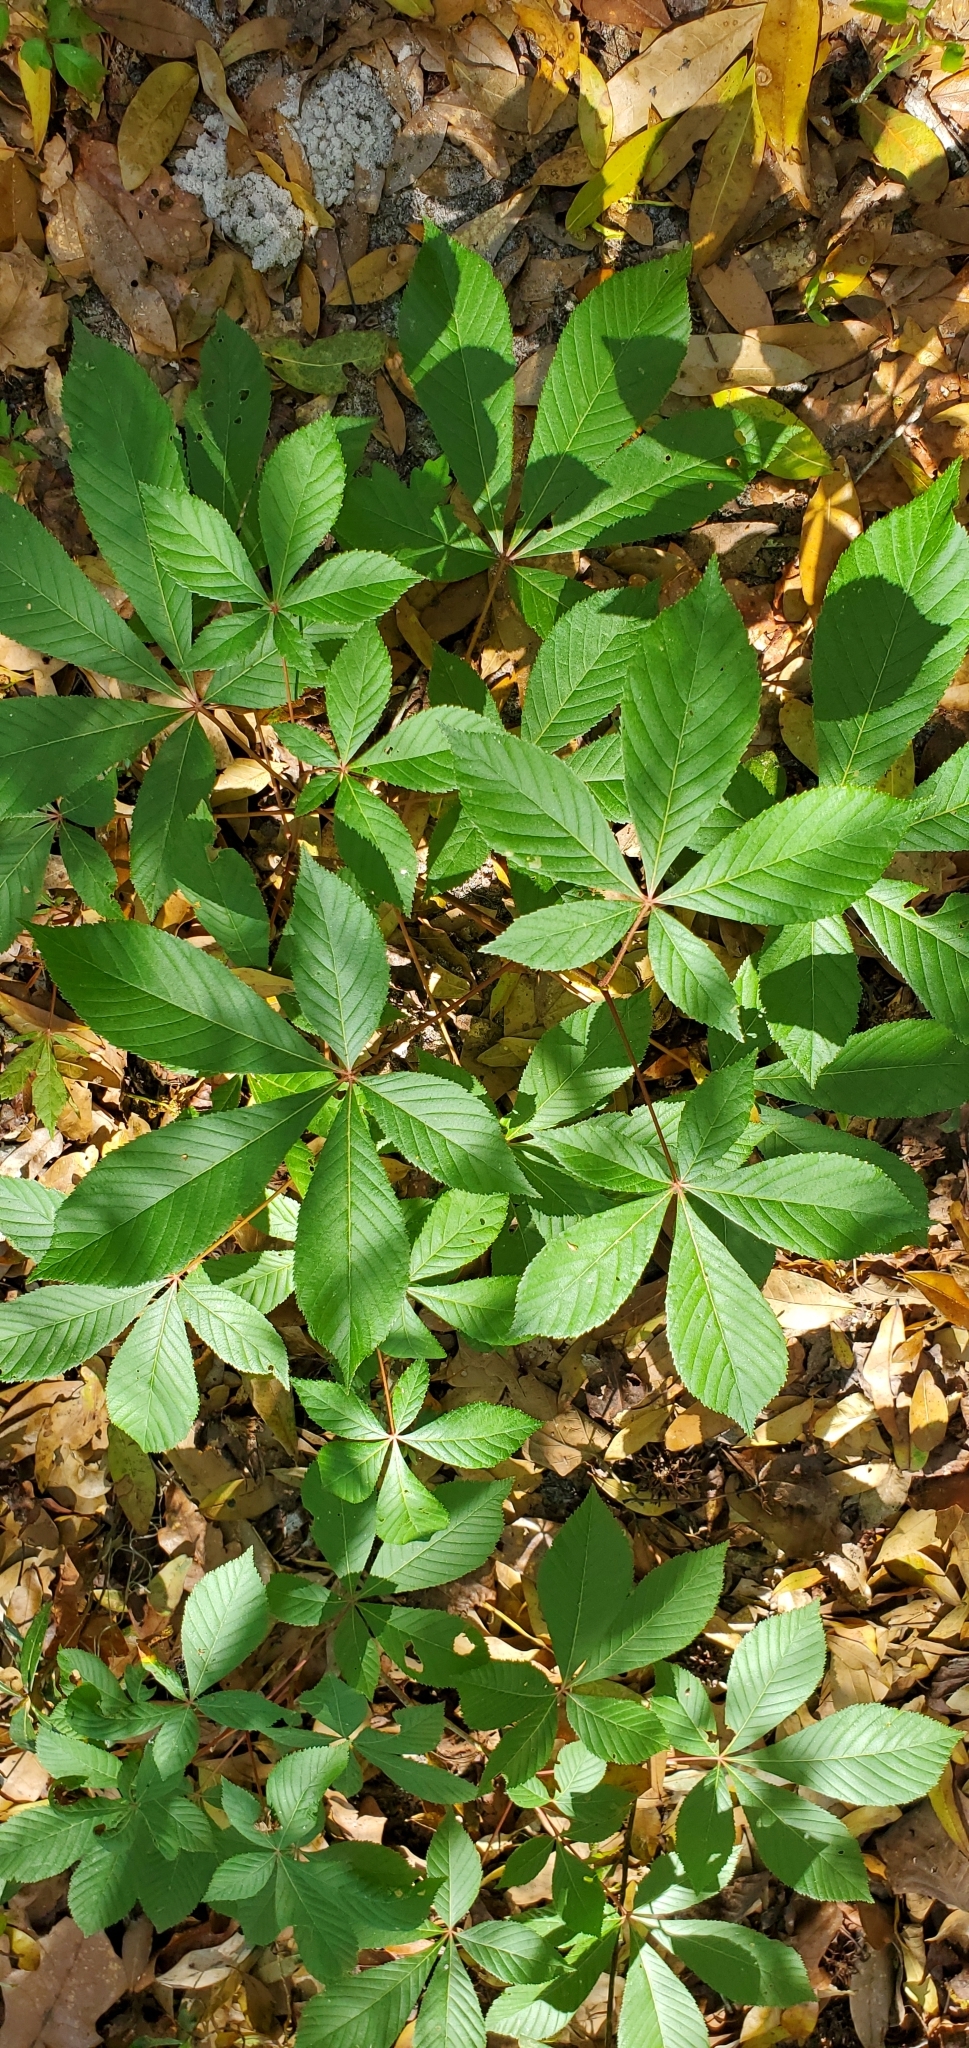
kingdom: Plantae
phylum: Tracheophyta
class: Magnoliopsida
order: Sapindales
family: Sapindaceae
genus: Aesculus
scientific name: Aesculus pavia
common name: Red buckeye
